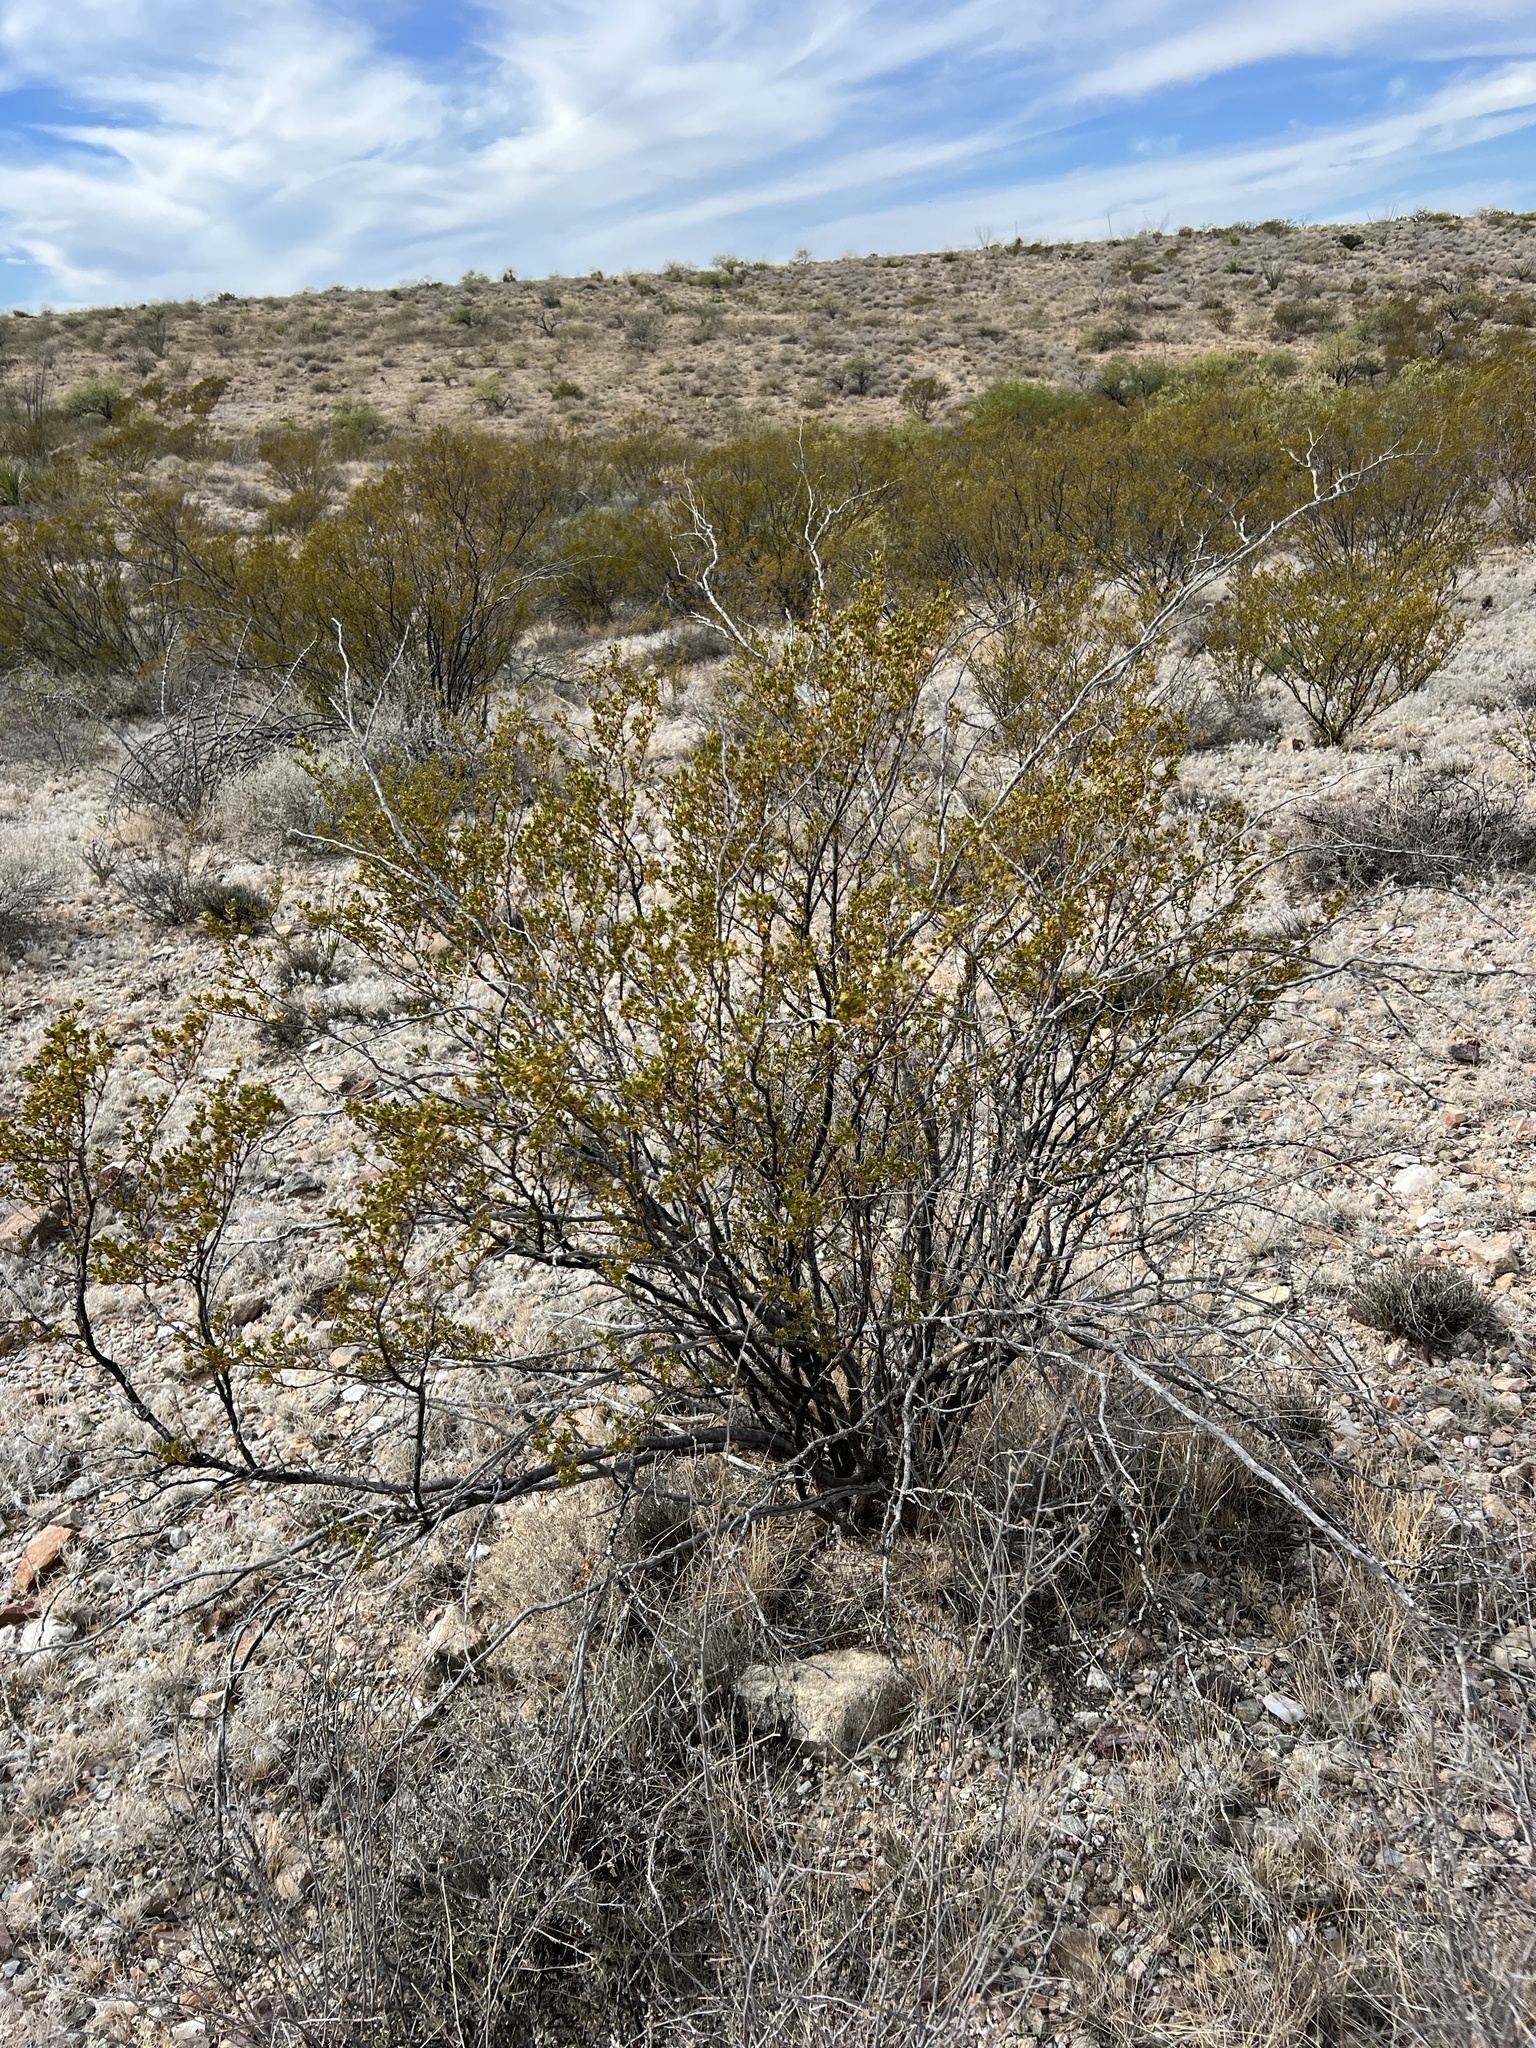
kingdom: Plantae
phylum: Tracheophyta
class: Magnoliopsida
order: Zygophyllales
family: Zygophyllaceae
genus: Larrea
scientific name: Larrea tridentata
